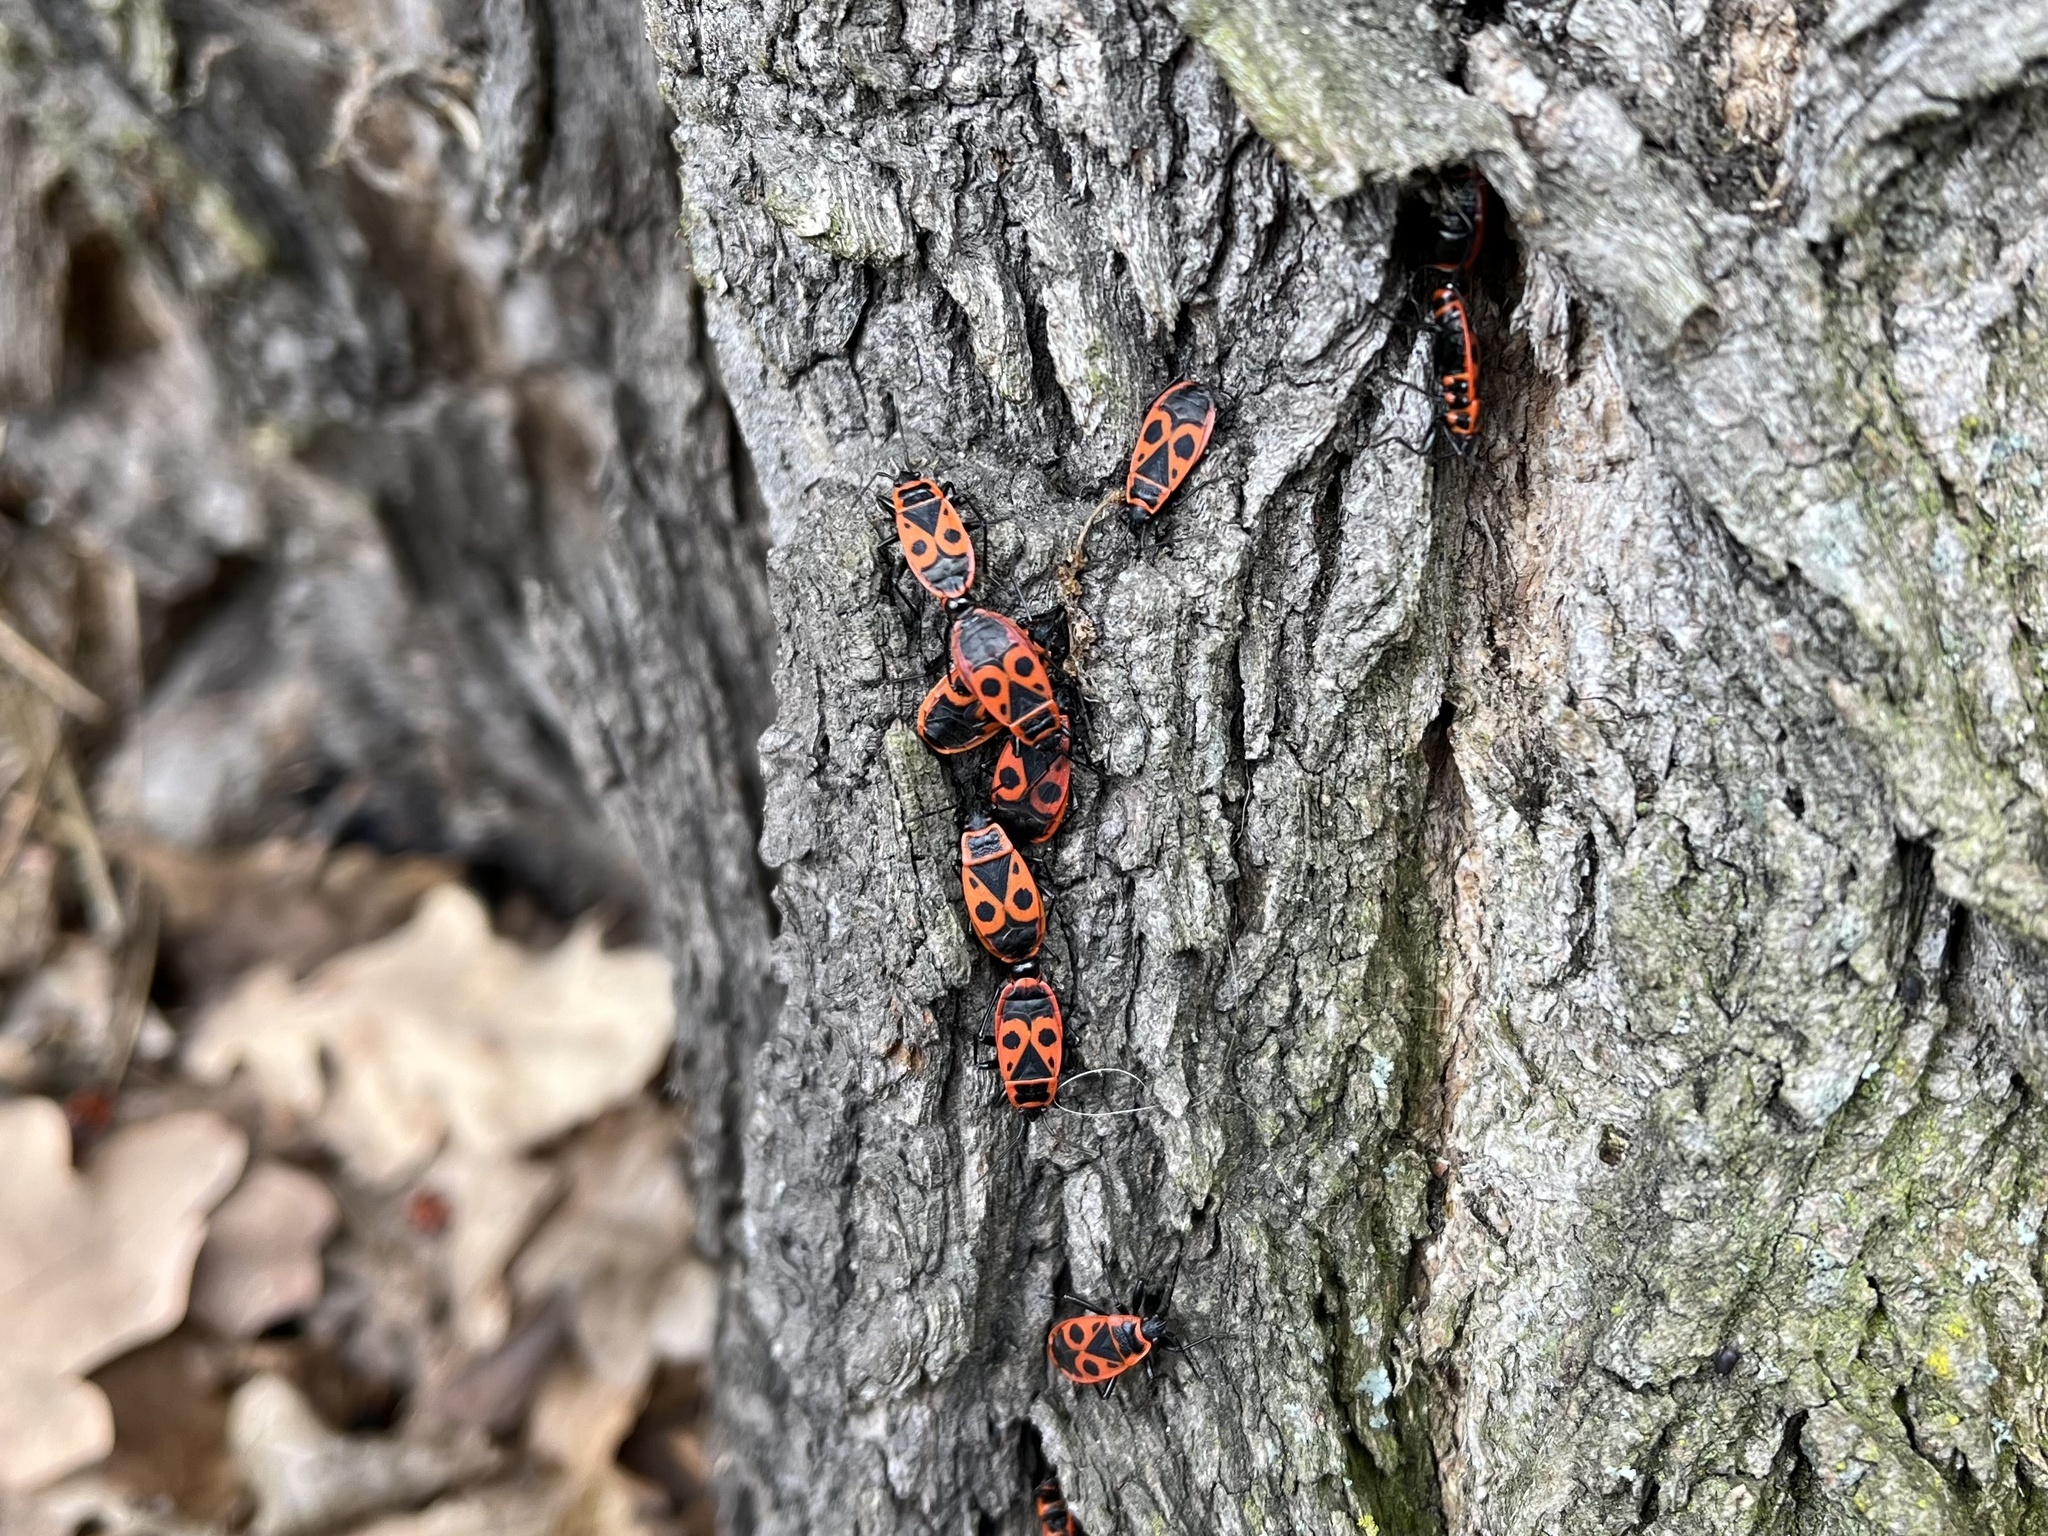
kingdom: Animalia
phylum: Arthropoda
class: Insecta
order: Hemiptera
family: Pyrrhocoridae
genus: Pyrrhocoris
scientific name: Pyrrhocoris apterus
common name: Firebug
